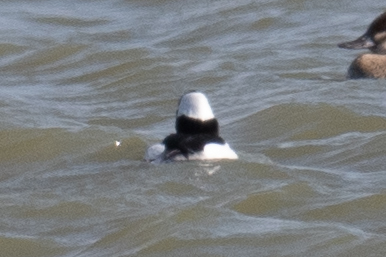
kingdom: Animalia
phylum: Chordata
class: Aves
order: Anseriformes
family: Anatidae
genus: Bucephala
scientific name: Bucephala albeola
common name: Bufflehead
